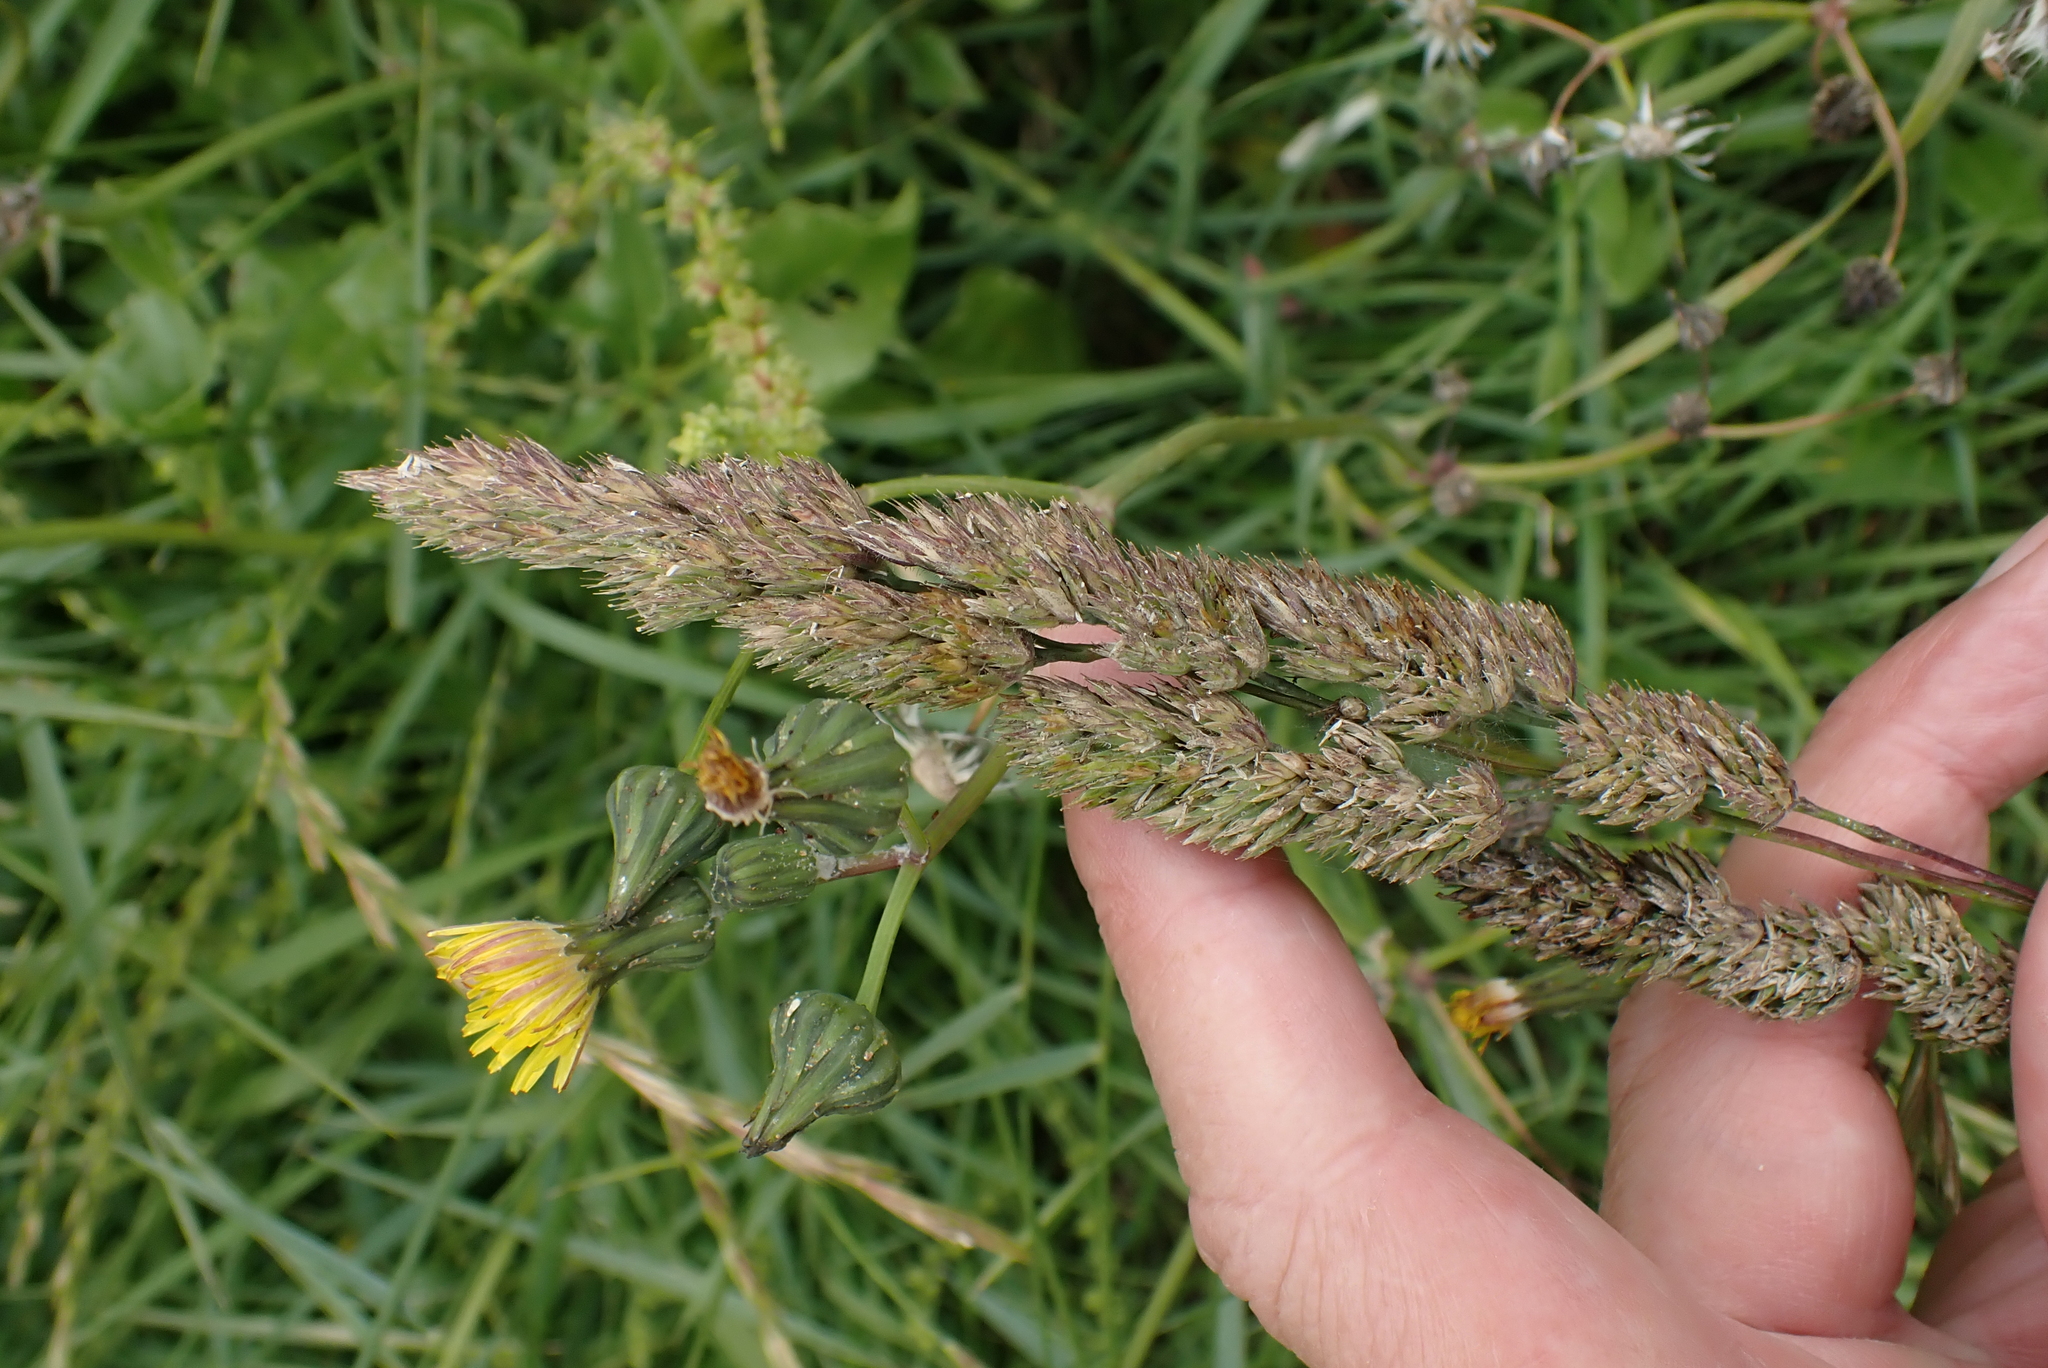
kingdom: Plantae
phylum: Tracheophyta
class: Liliopsida
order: Poales
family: Poaceae
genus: Dactylis
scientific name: Dactylis glomerata
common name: Orchardgrass
